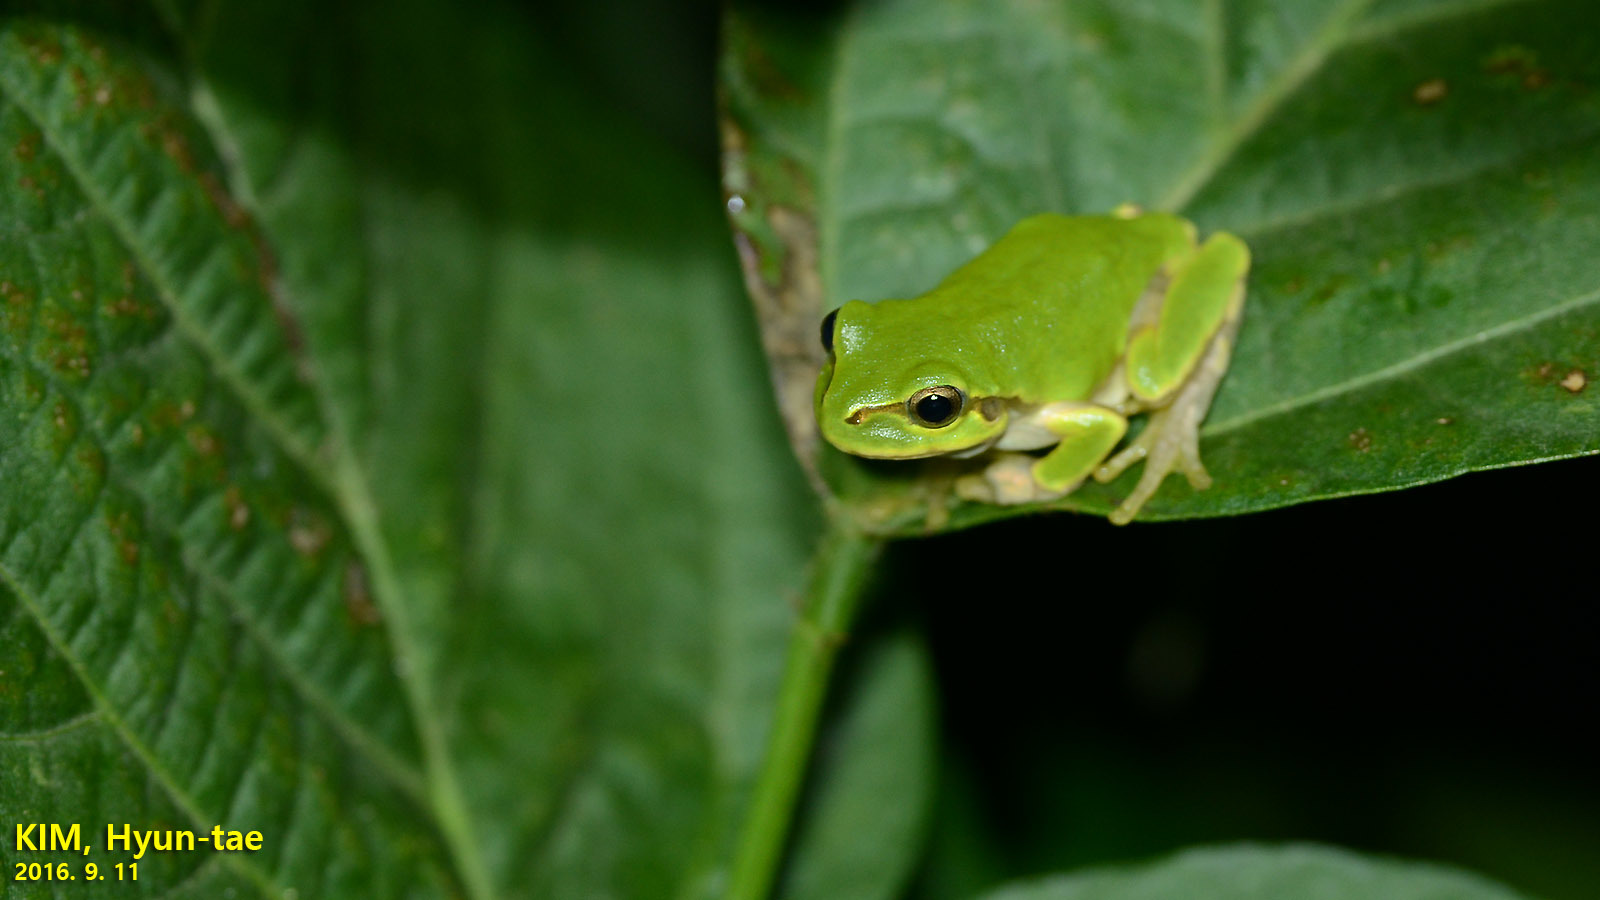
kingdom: Animalia
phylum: Chordata
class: Amphibia
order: Anura
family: Hylidae
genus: Dryophytes
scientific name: Dryophytes japonicus
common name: Japanese treefrog
